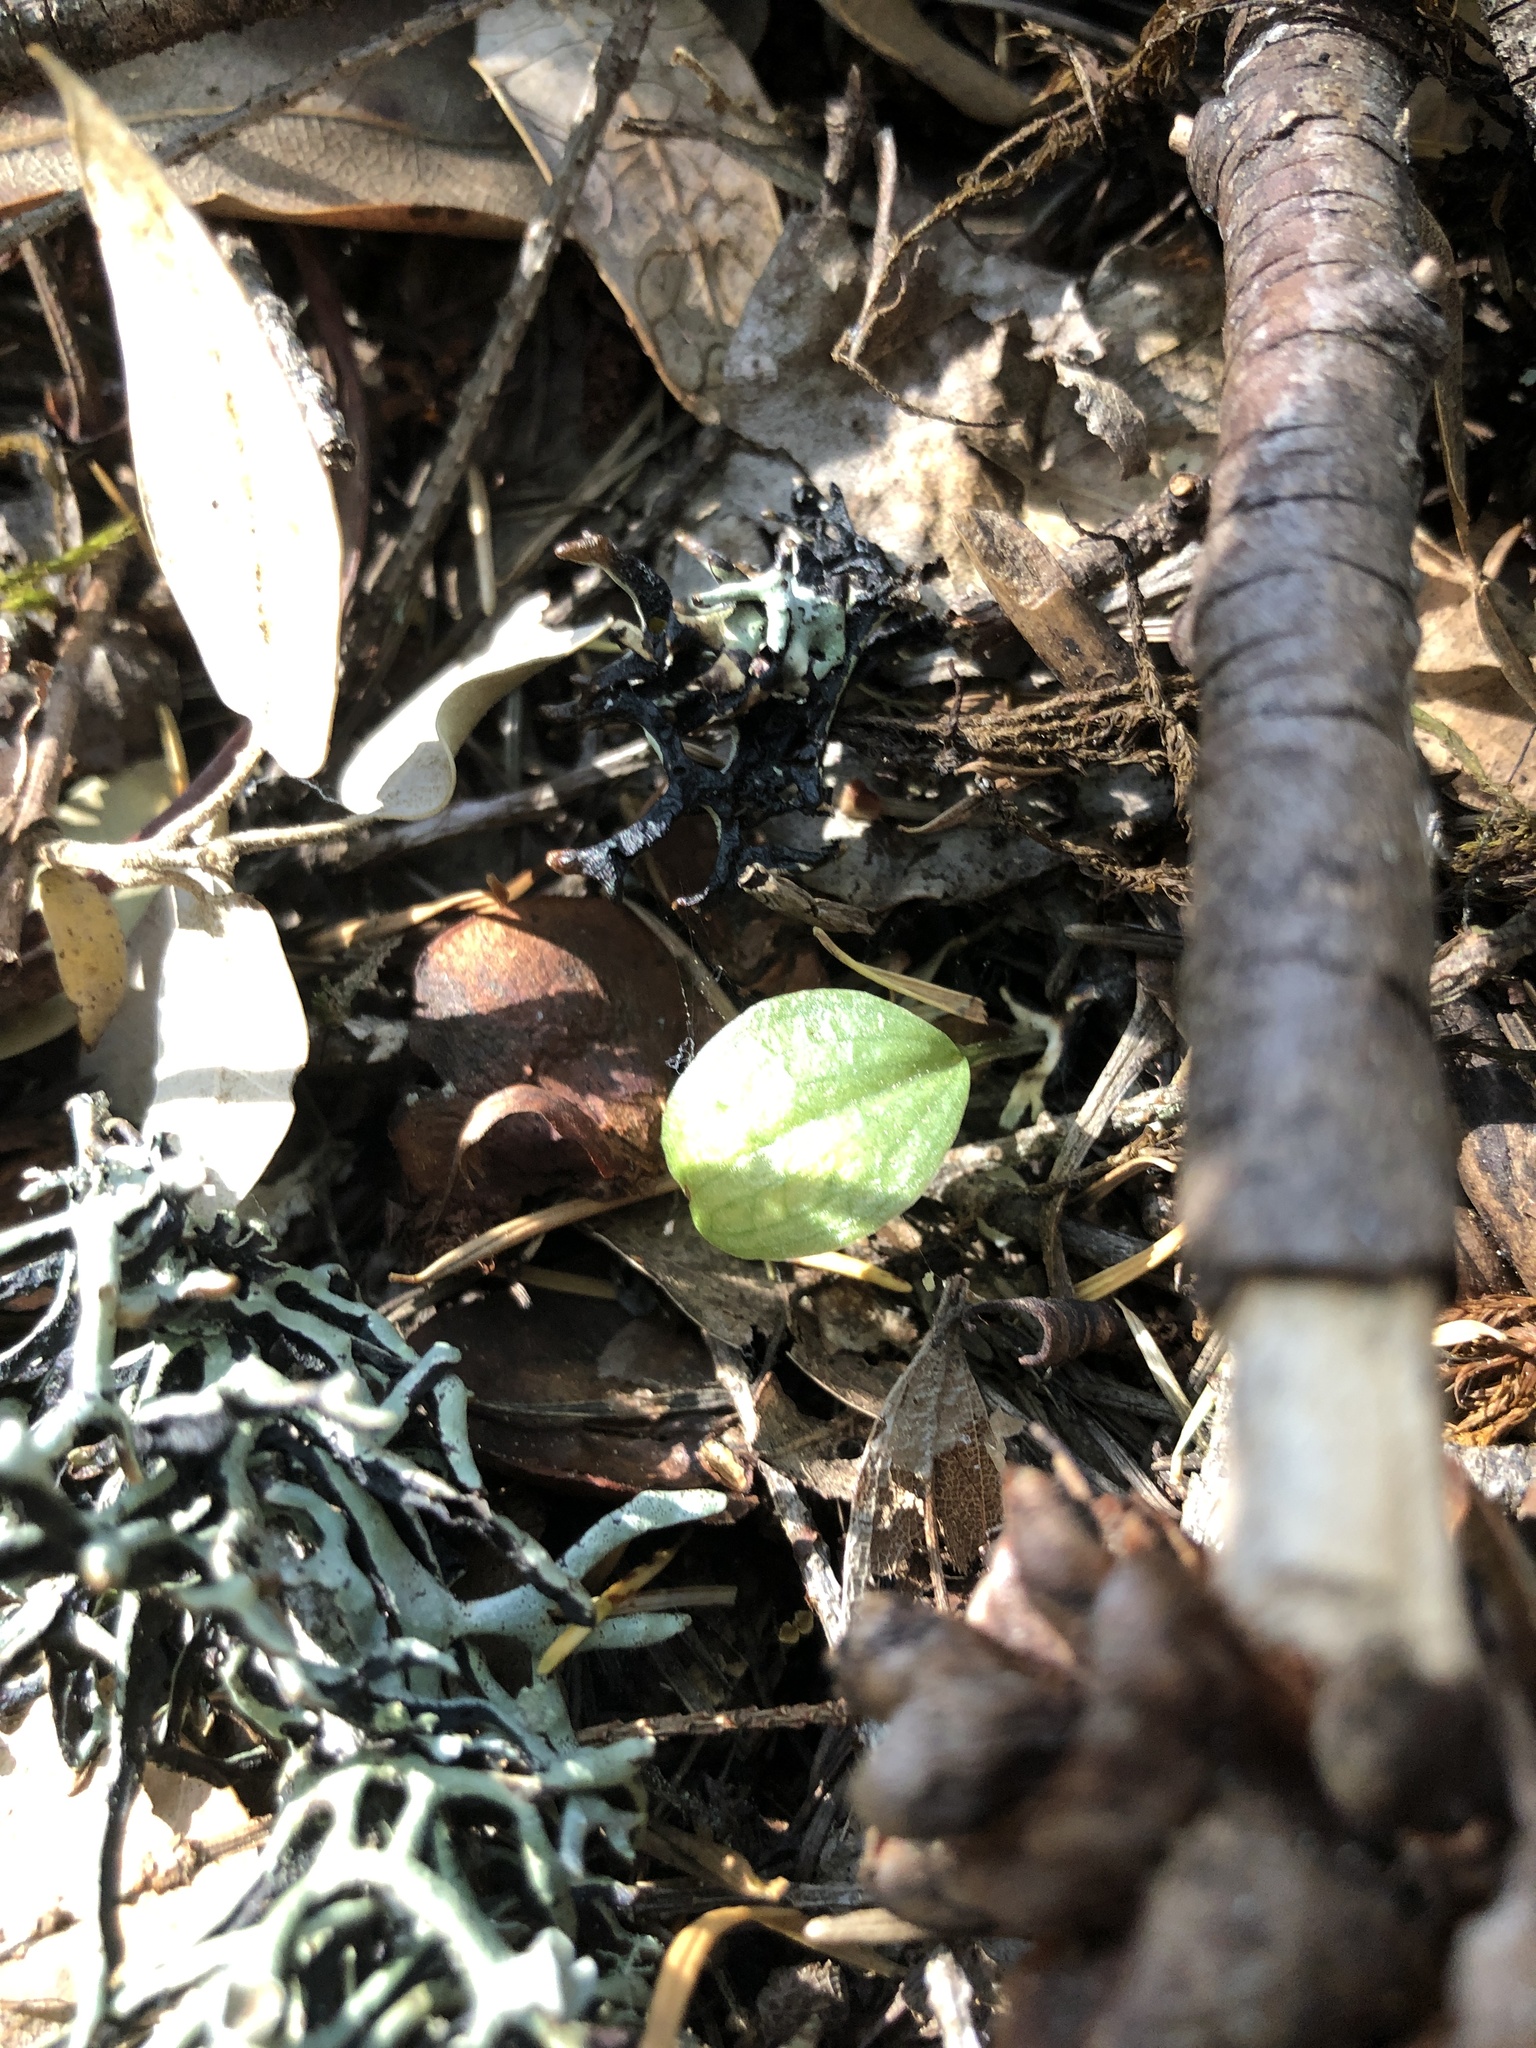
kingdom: Plantae
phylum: Tracheophyta
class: Liliopsida
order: Asparagales
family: Orchidaceae
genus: Calypso
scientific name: Calypso bulbosa
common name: Calypso
